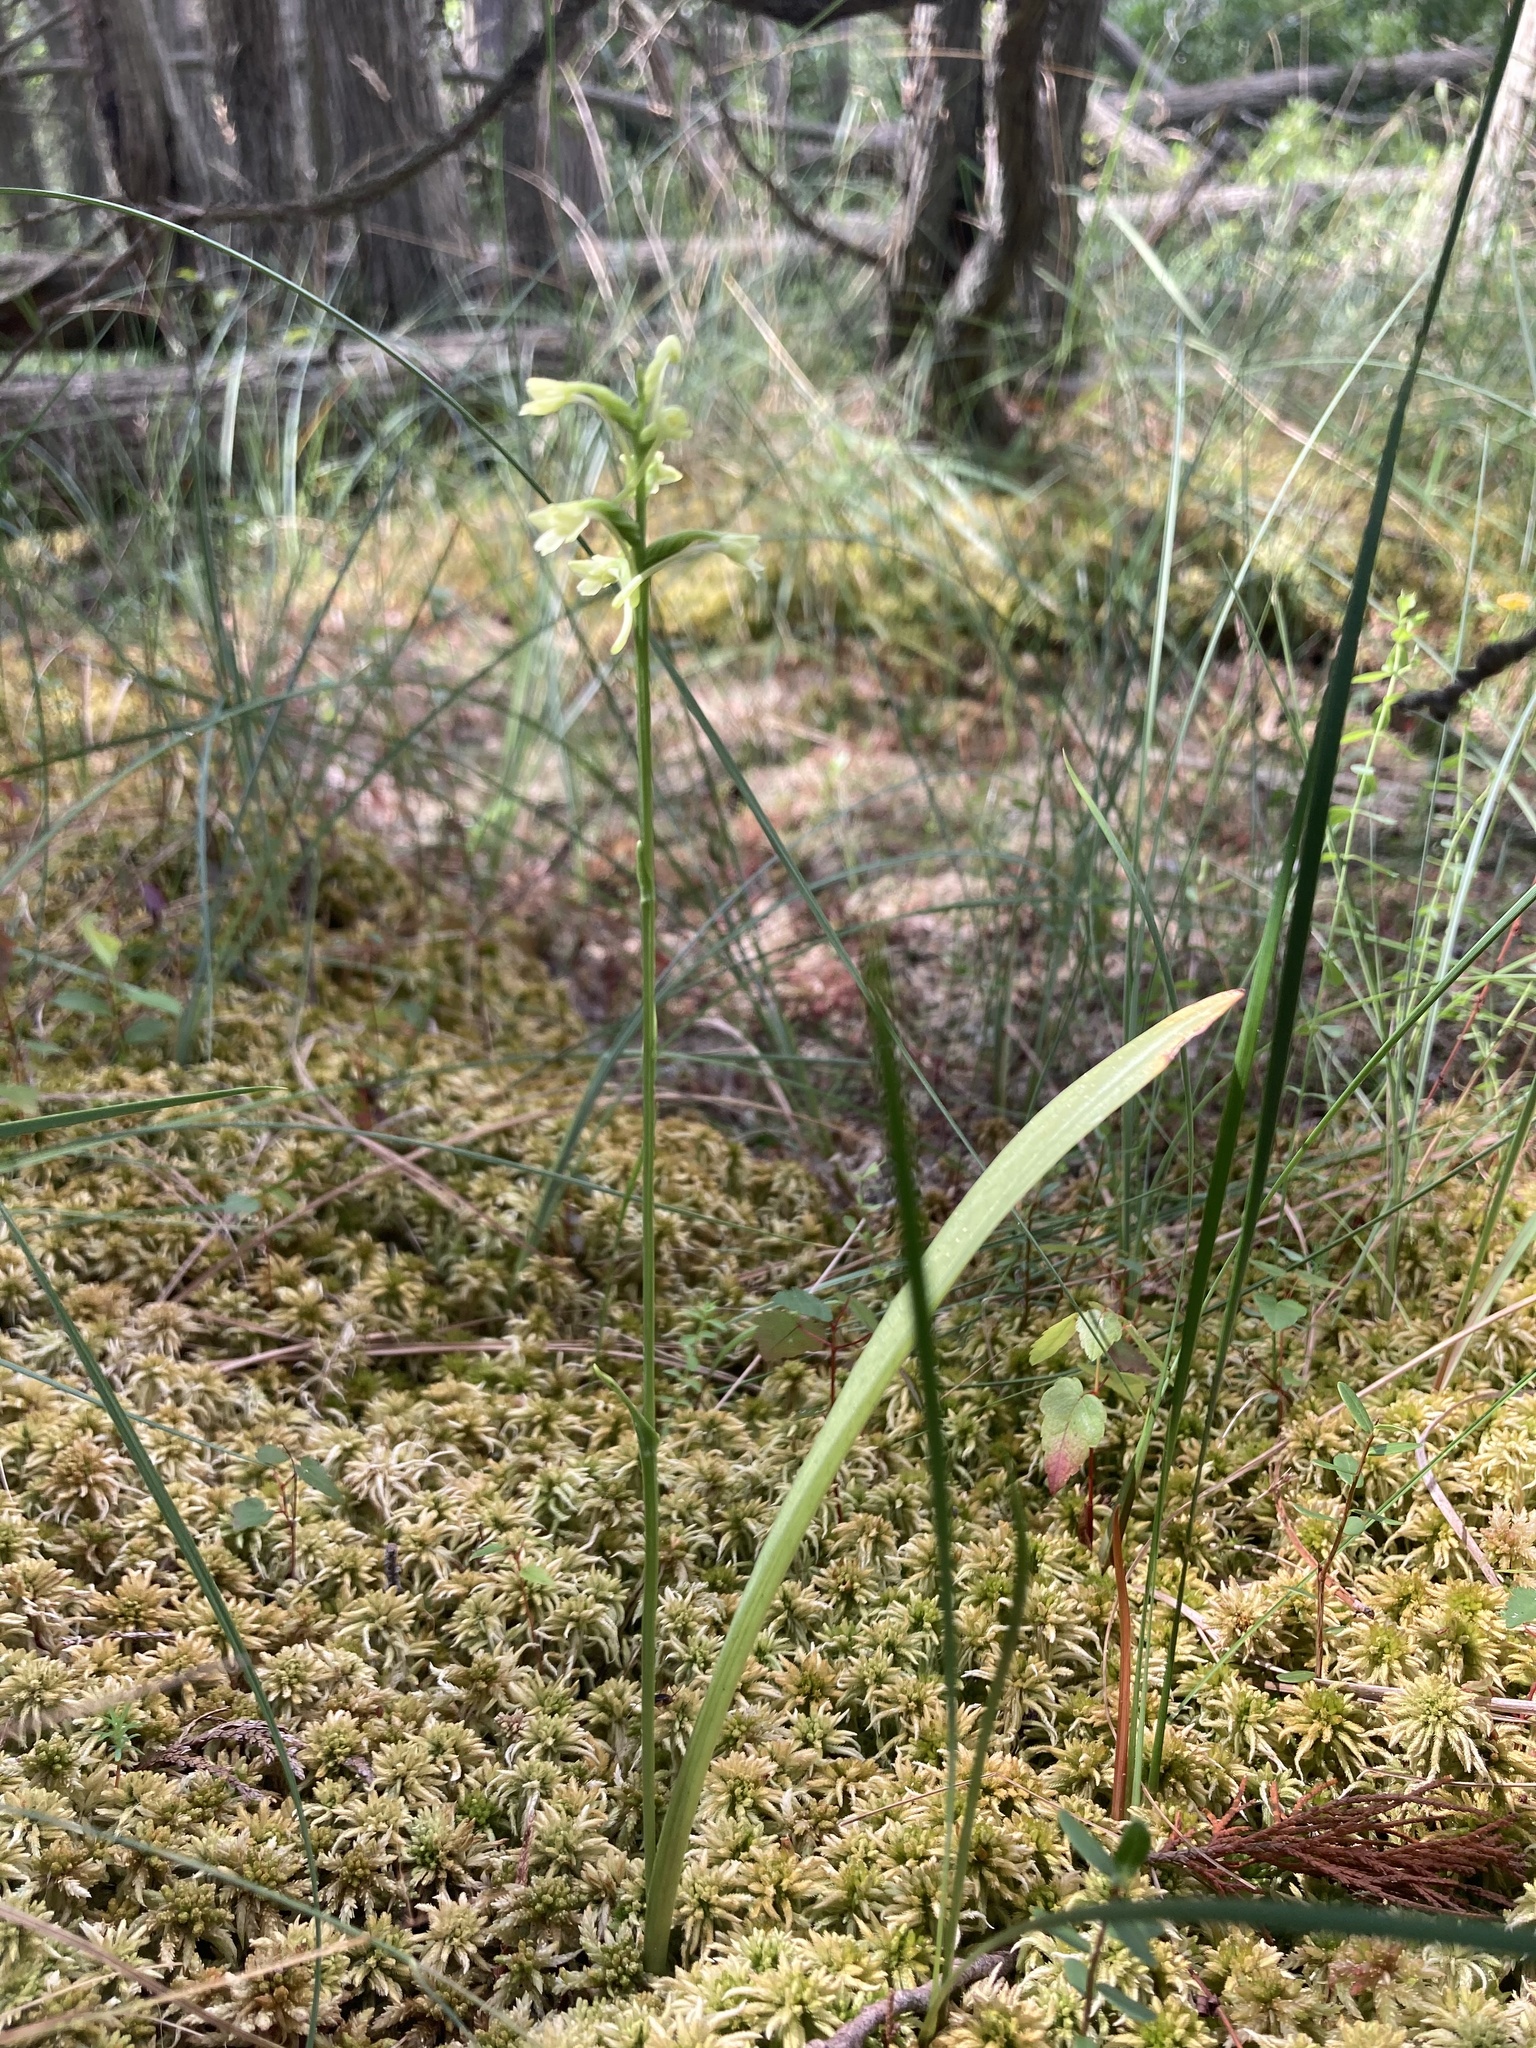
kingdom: Plantae
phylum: Tracheophyta
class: Liliopsida
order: Asparagales
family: Orchidaceae
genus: Platanthera
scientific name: Platanthera clavellata
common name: Club-spur orchid
